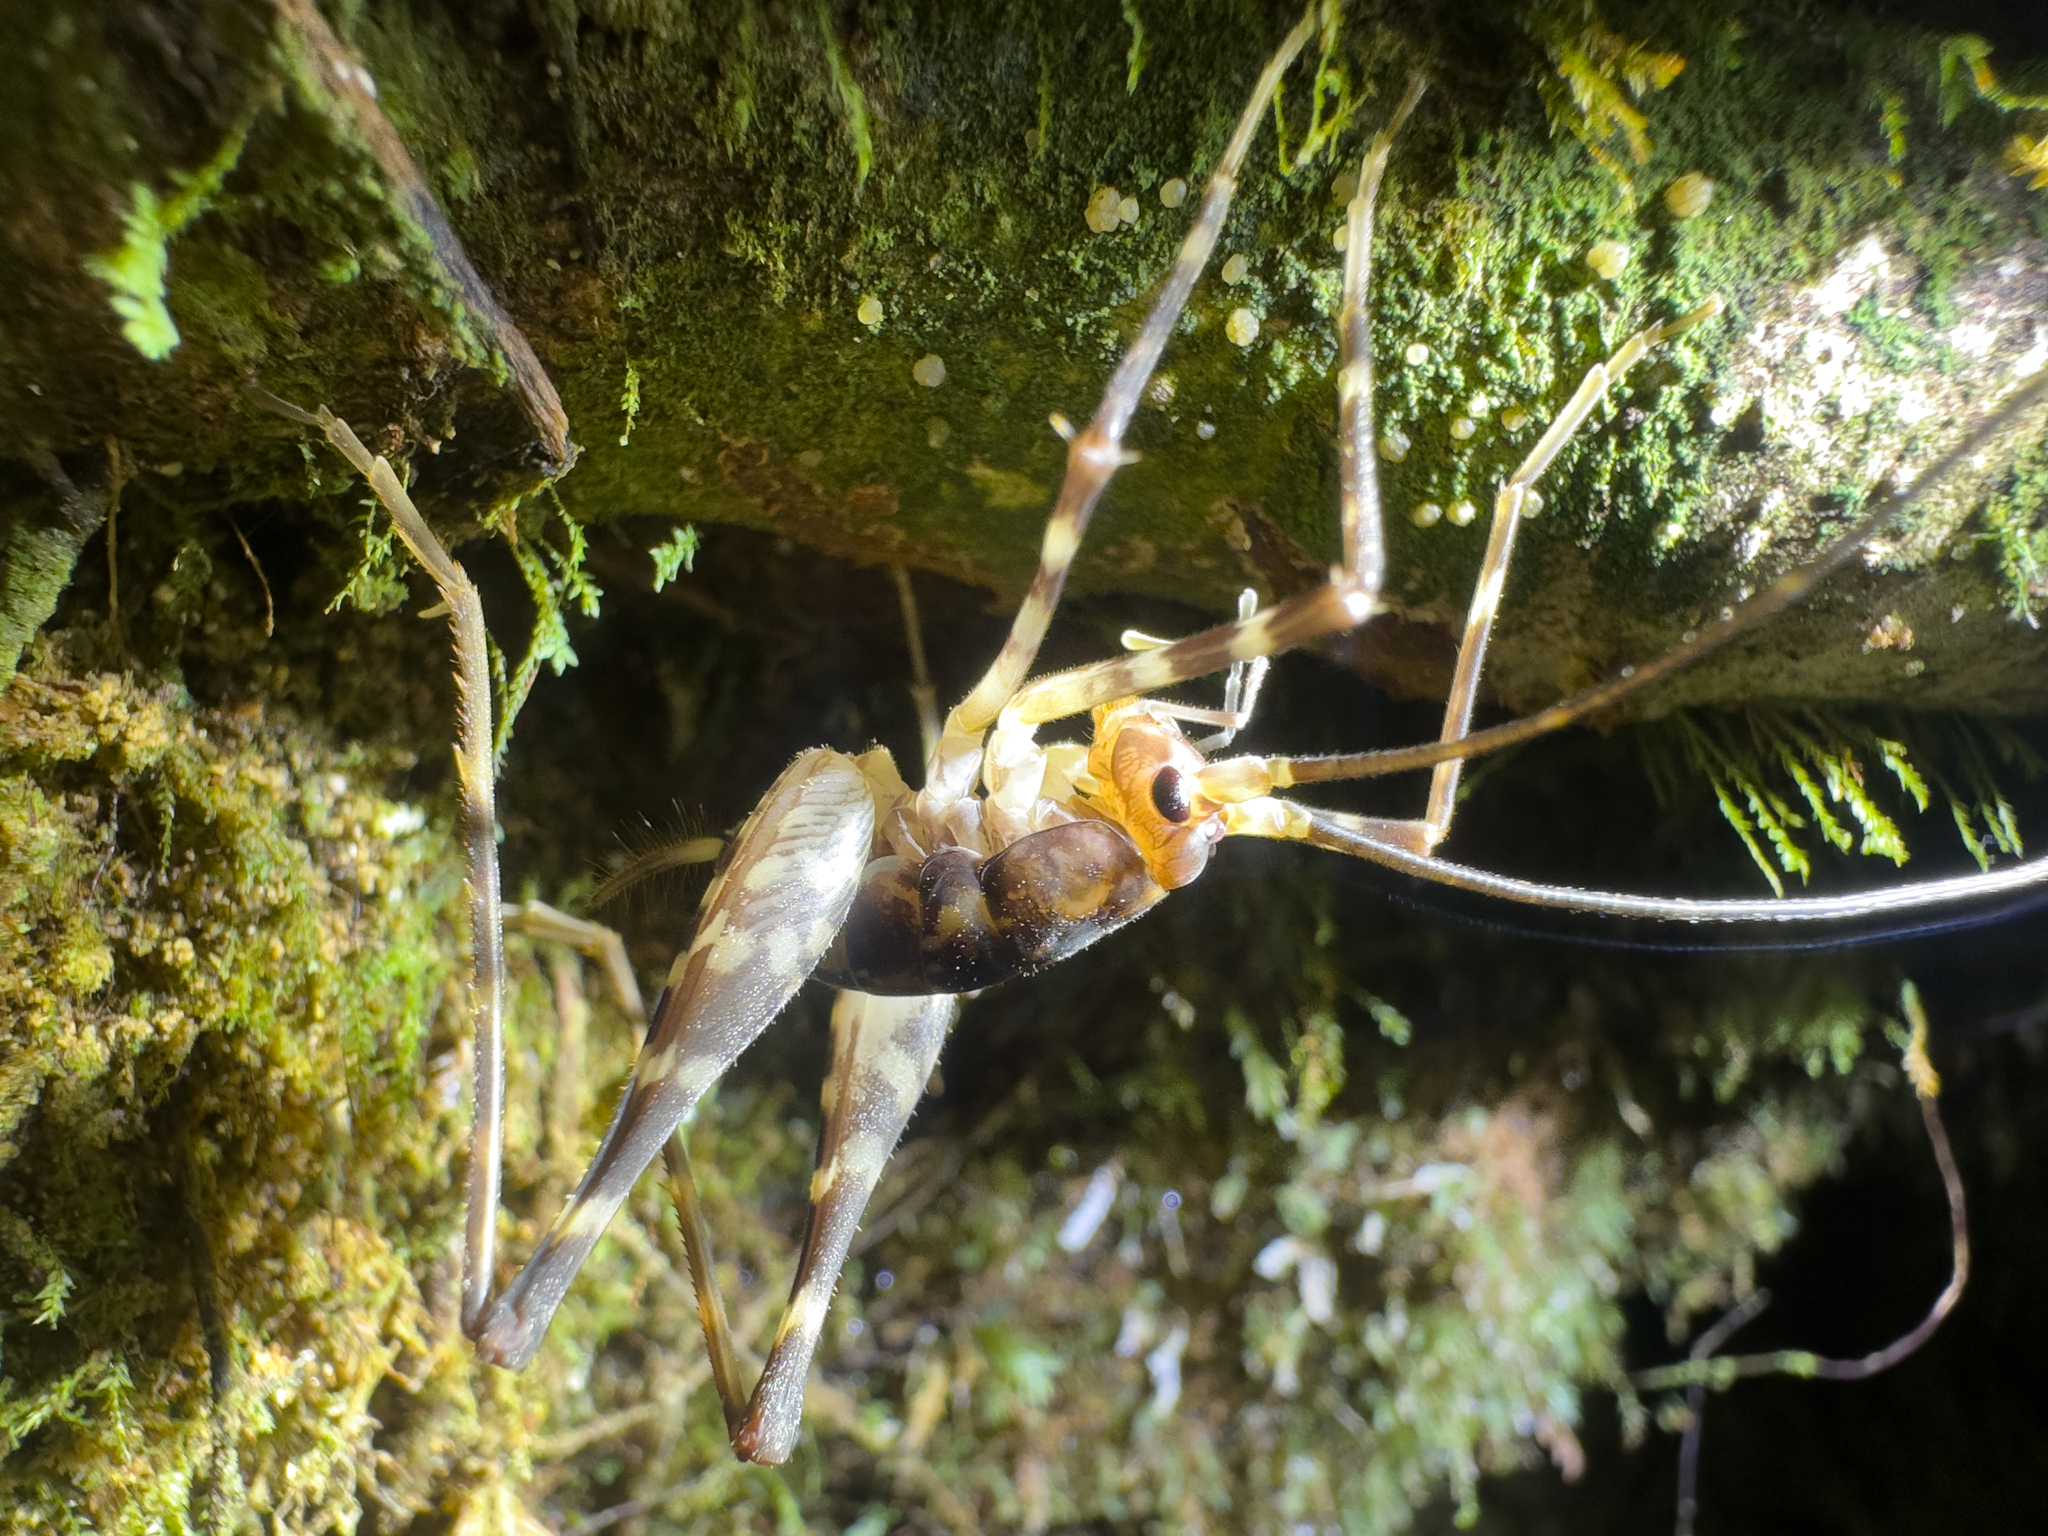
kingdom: Animalia
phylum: Arthropoda
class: Insecta
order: Orthoptera
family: Rhaphidophoridae
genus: Miotopus
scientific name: Miotopus richardsae
